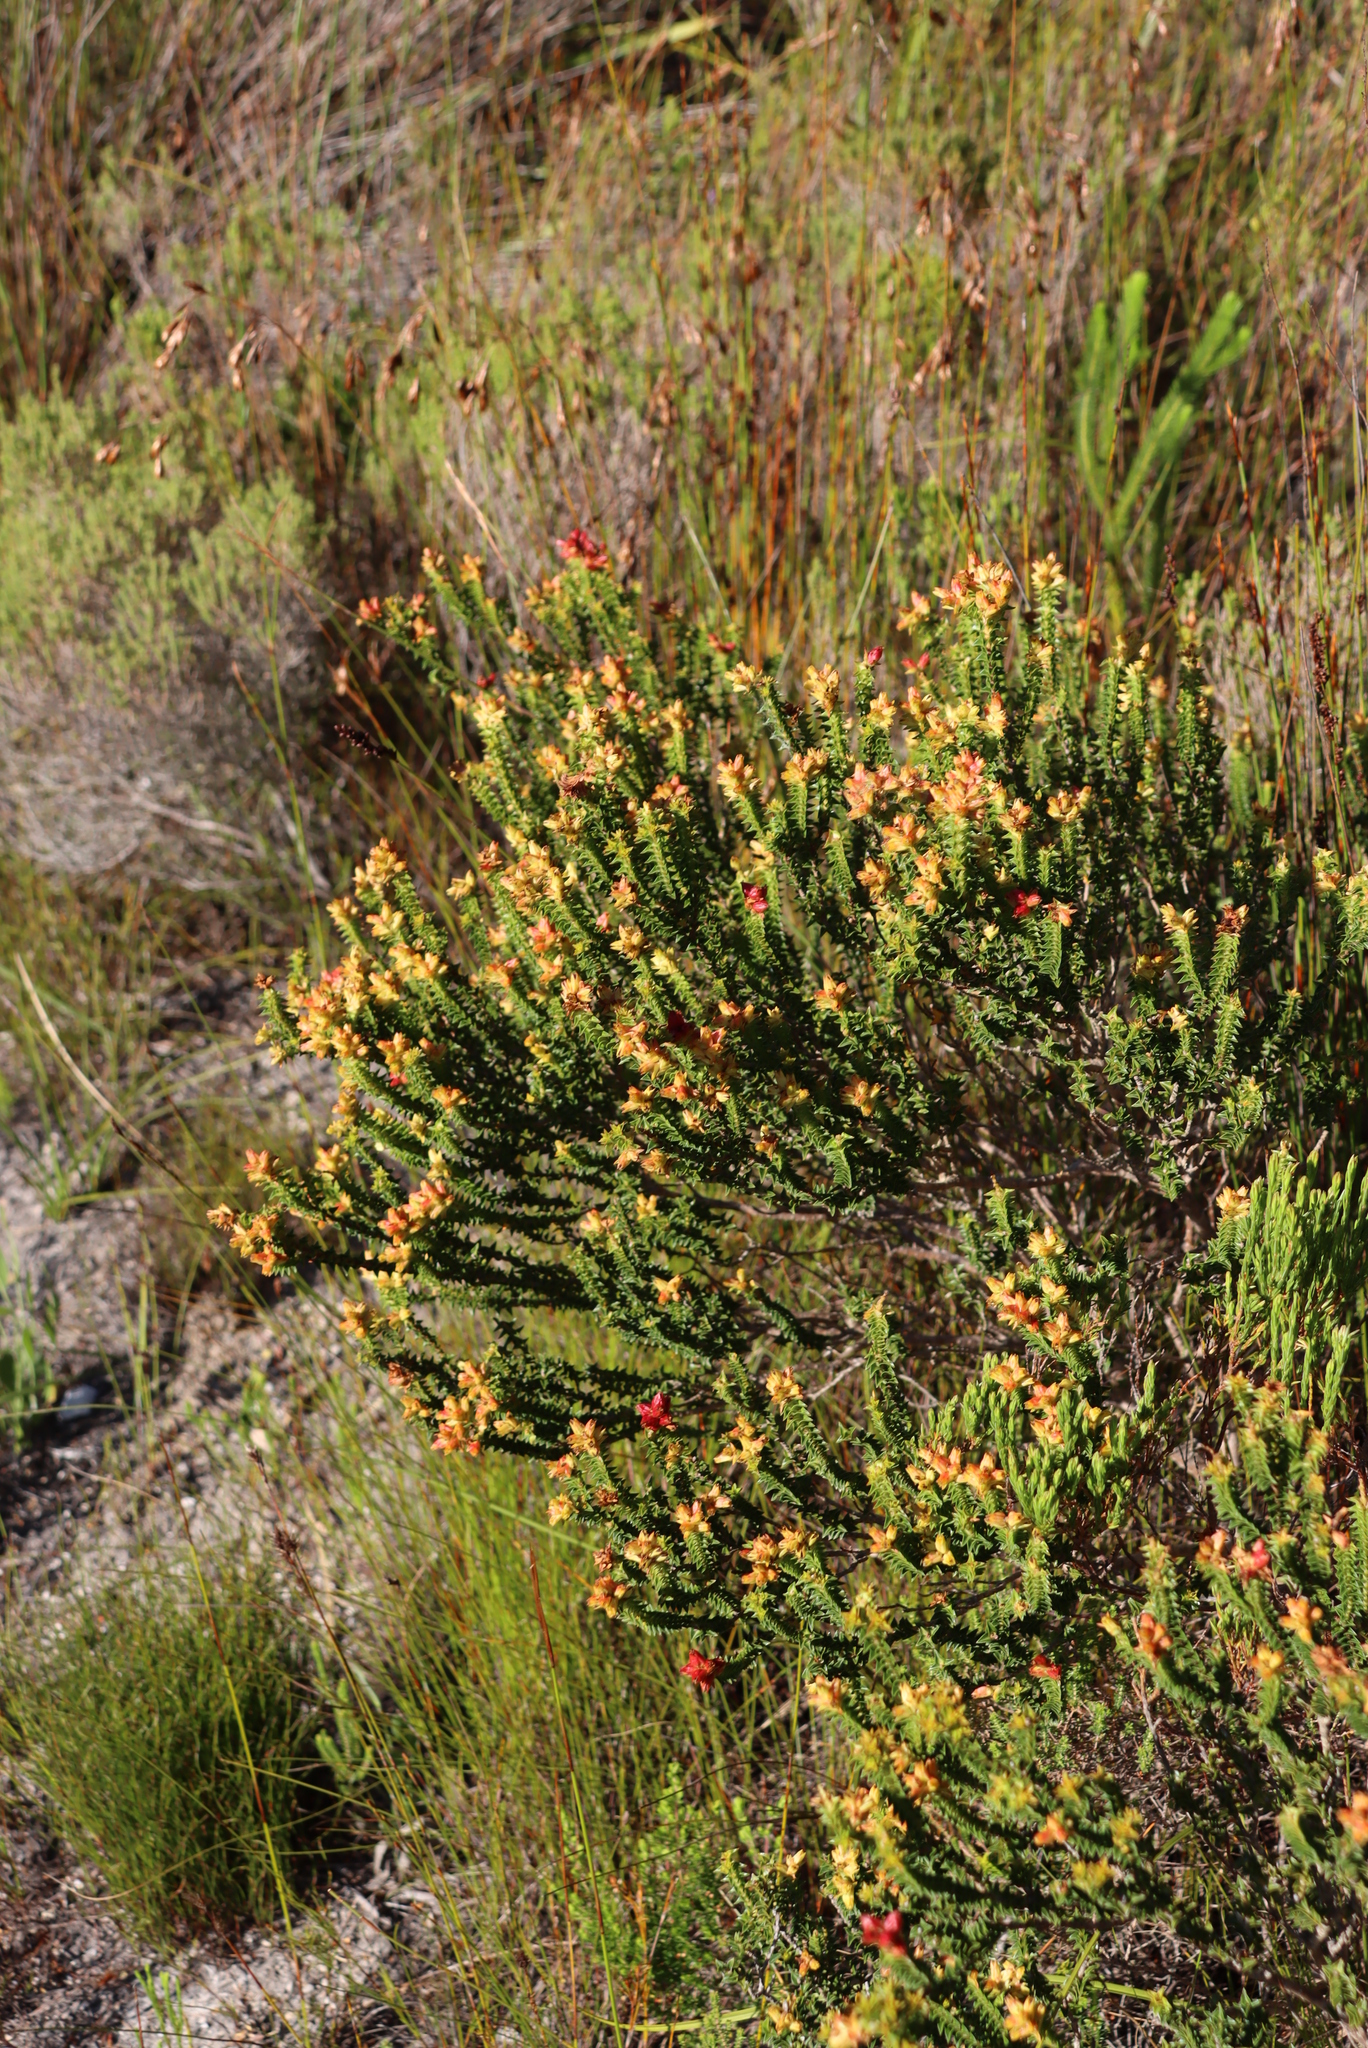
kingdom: Plantae
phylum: Tracheophyta
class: Magnoliopsida
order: Myrtales
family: Penaeaceae
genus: Penaea
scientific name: Penaea mucronata
